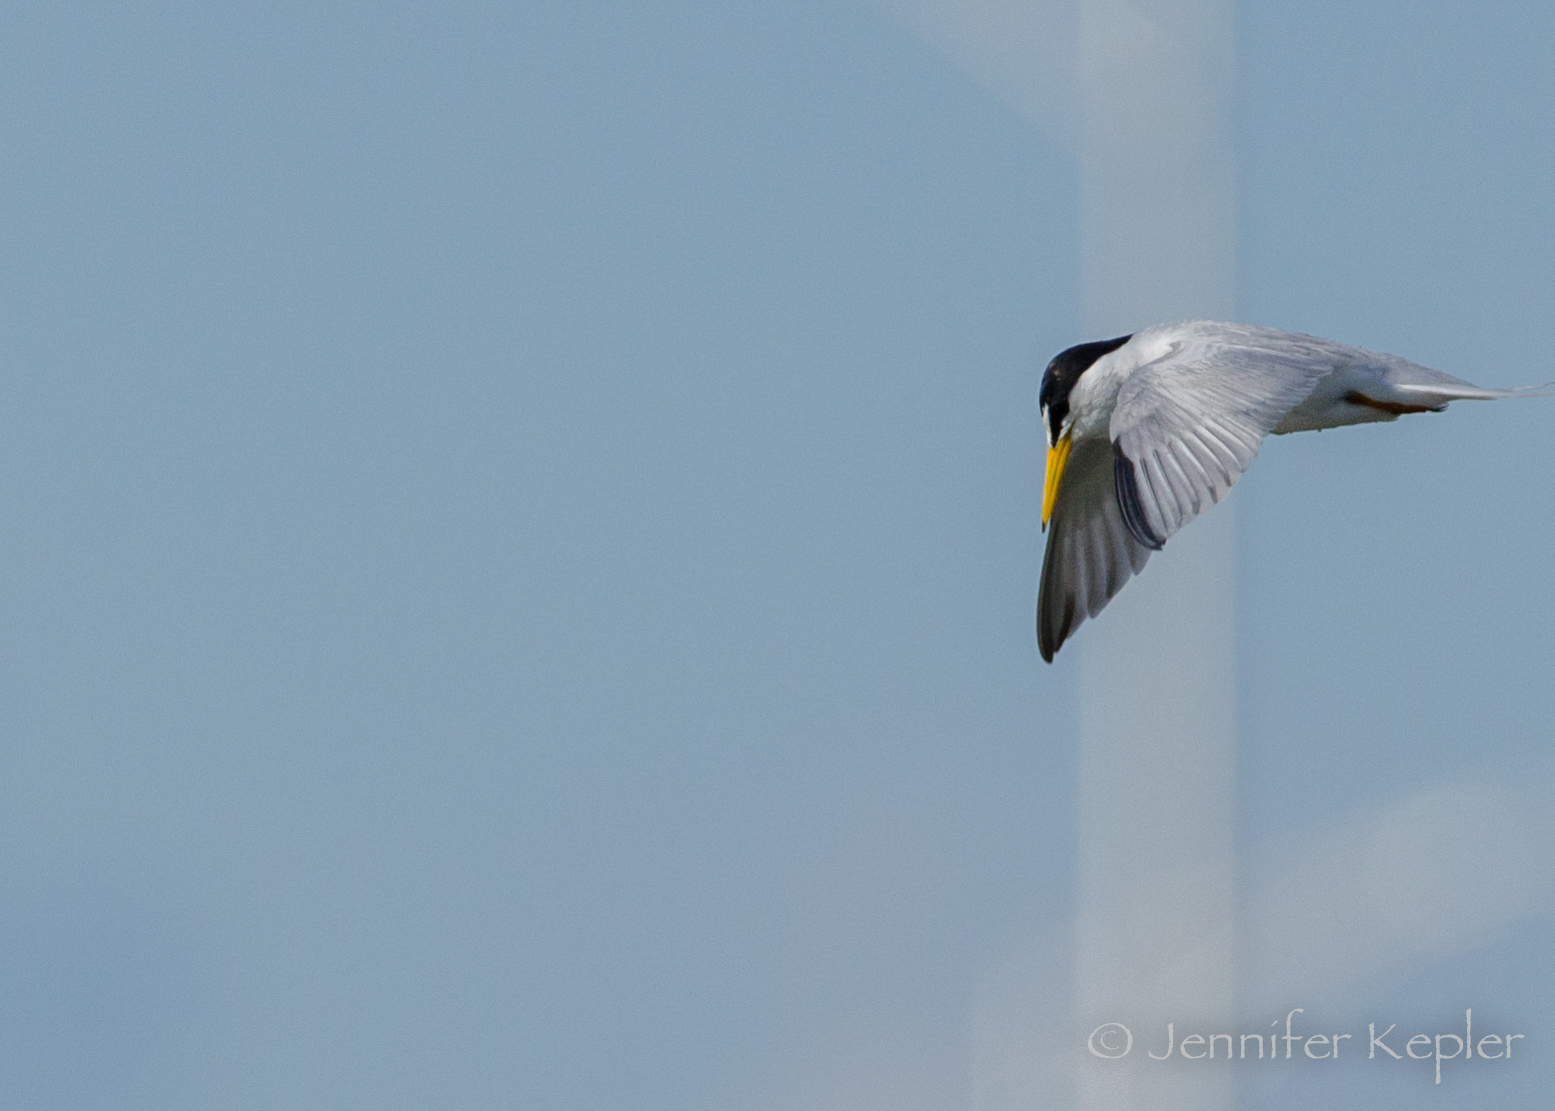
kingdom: Animalia
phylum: Chordata
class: Aves
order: Charadriiformes
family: Laridae
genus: Sternula
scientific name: Sternula antillarum
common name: Least tern
